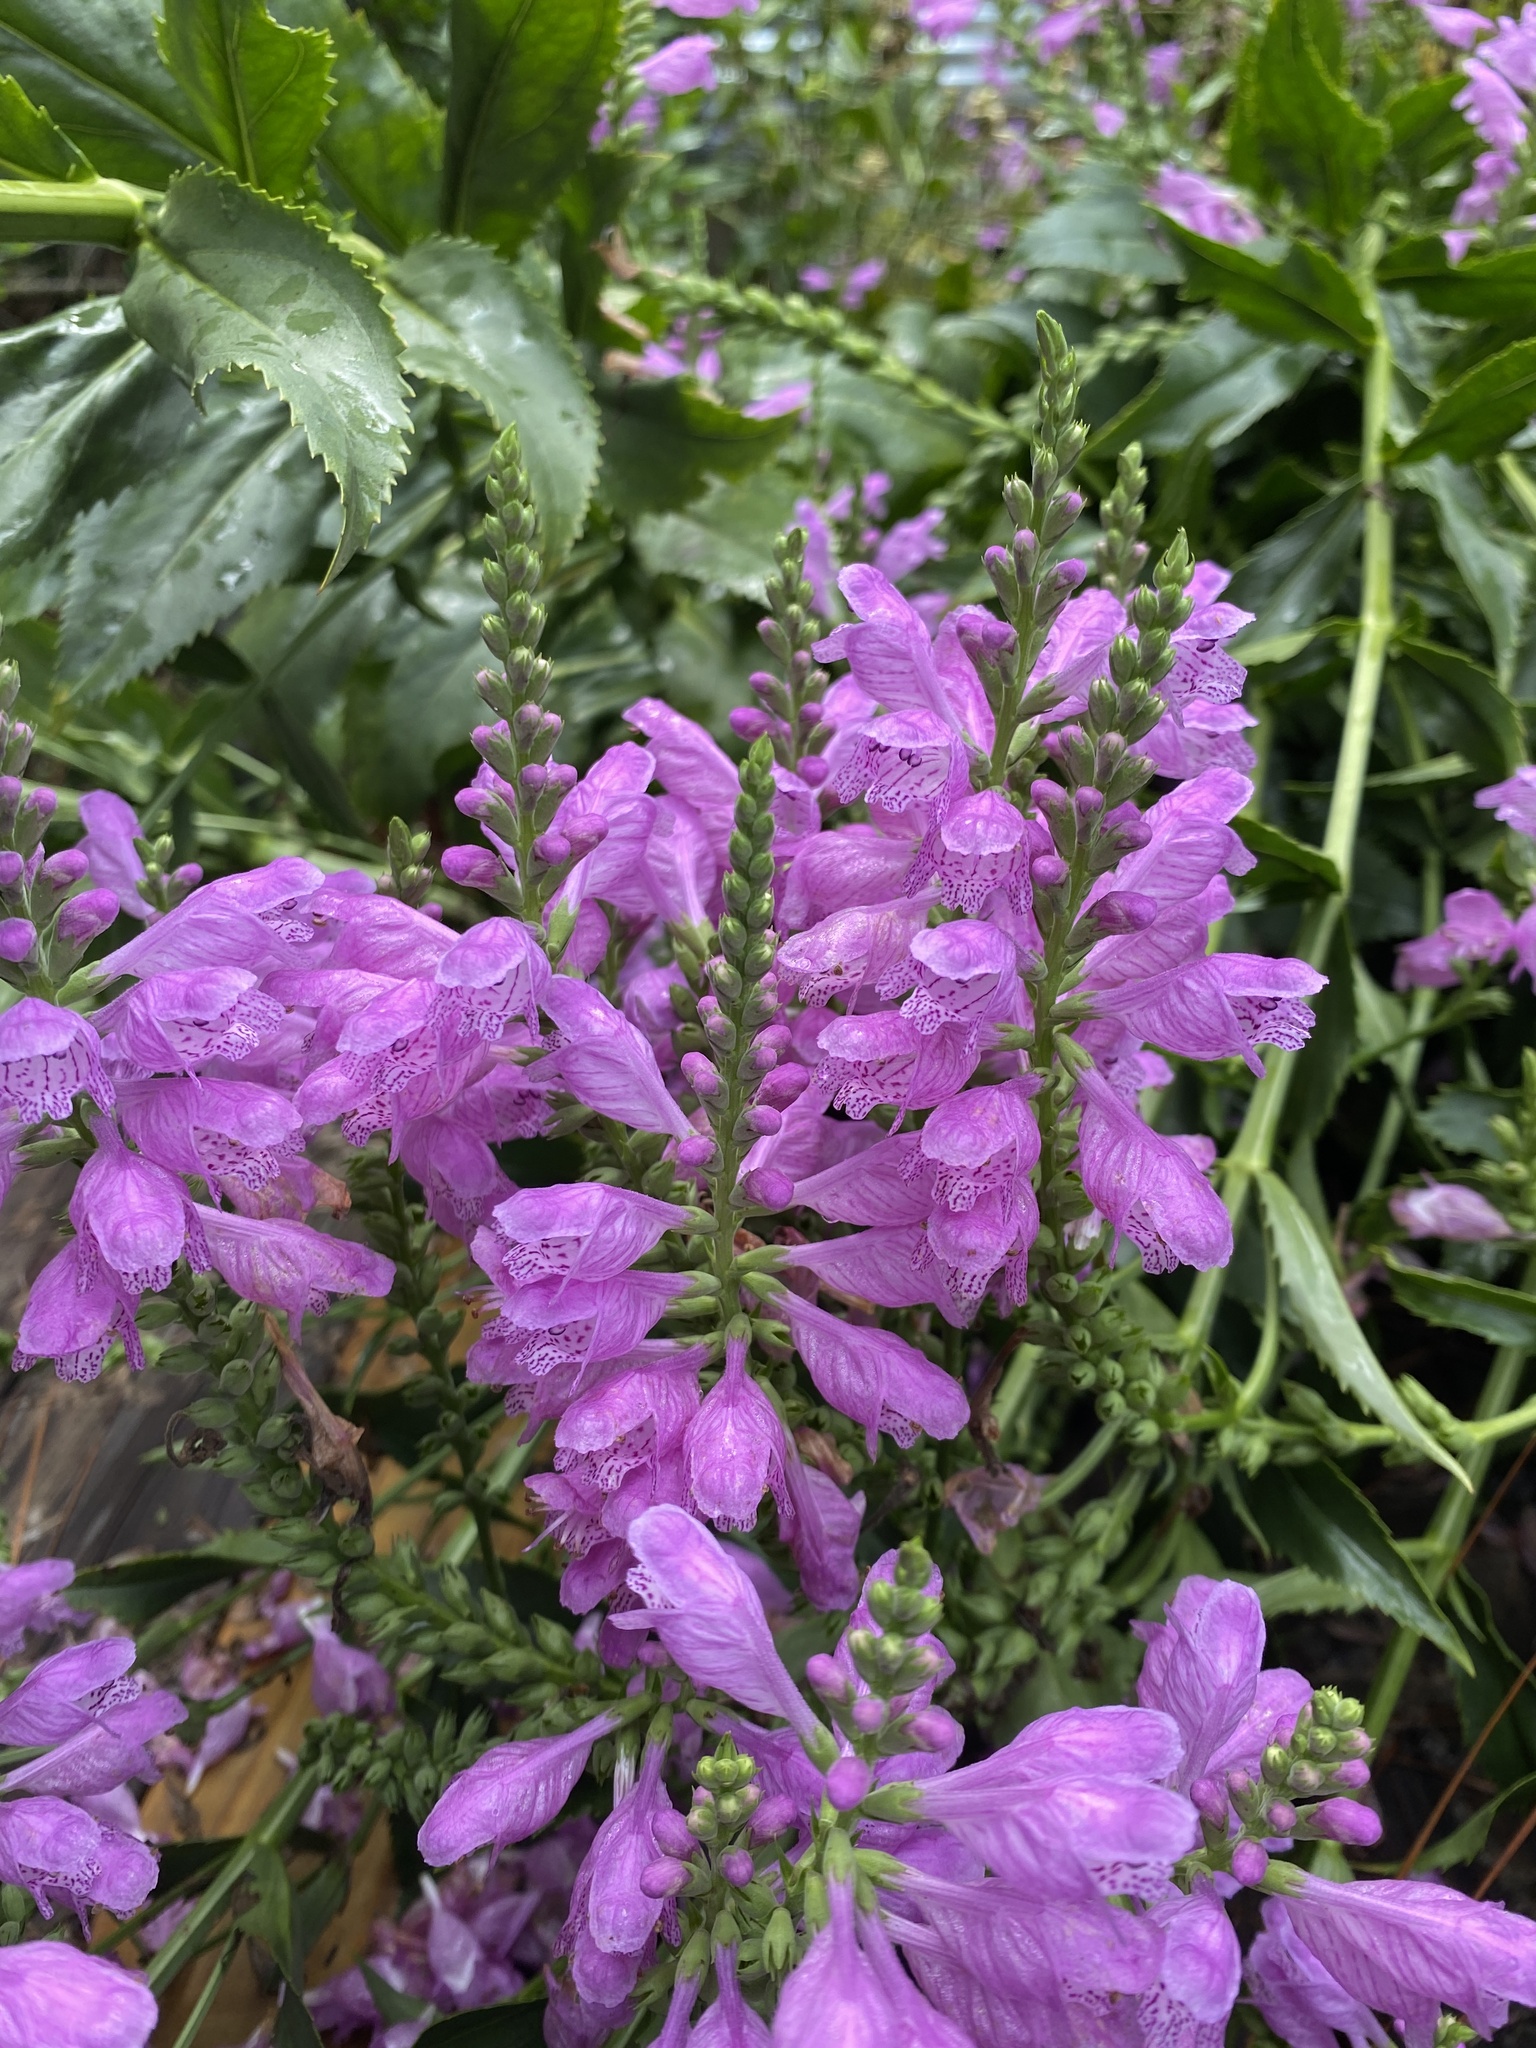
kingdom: Plantae
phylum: Tracheophyta
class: Magnoliopsida
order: Lamiales
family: Lamiaceae
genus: Physostegia
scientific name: Physostegia virginiana
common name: Obedient-plant
